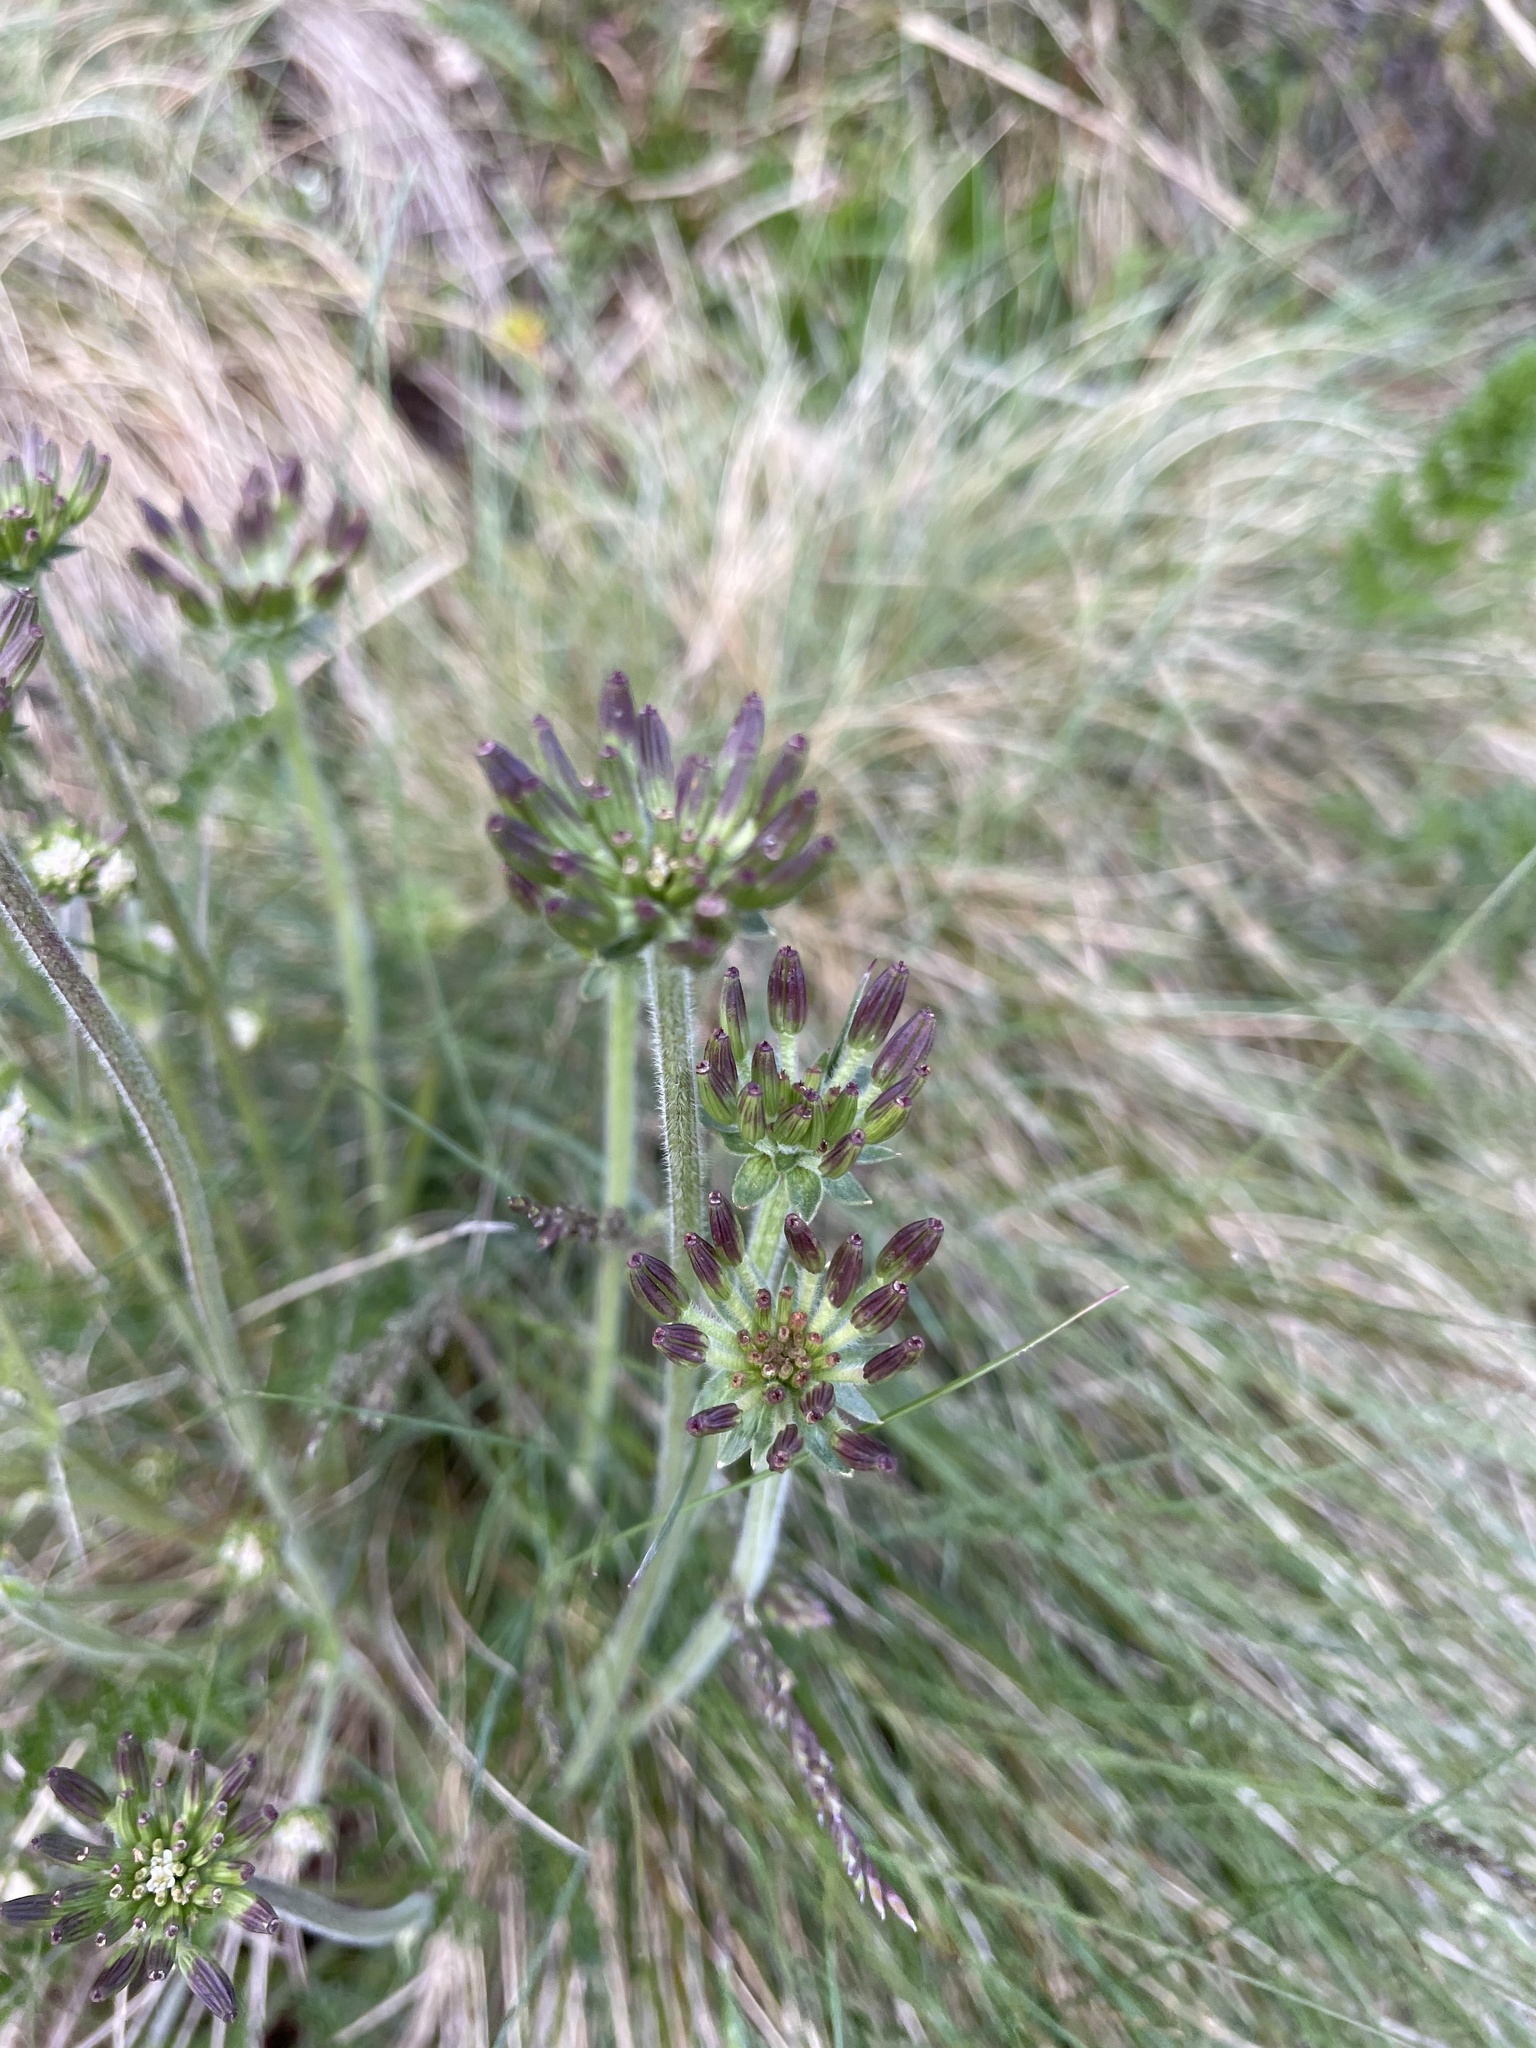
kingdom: Plantae
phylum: Tracheophyta
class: Magnoliopsida
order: Apiales
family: Apiaceae
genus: Chaerophyllum
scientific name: Chaerophyllum eriopodum
